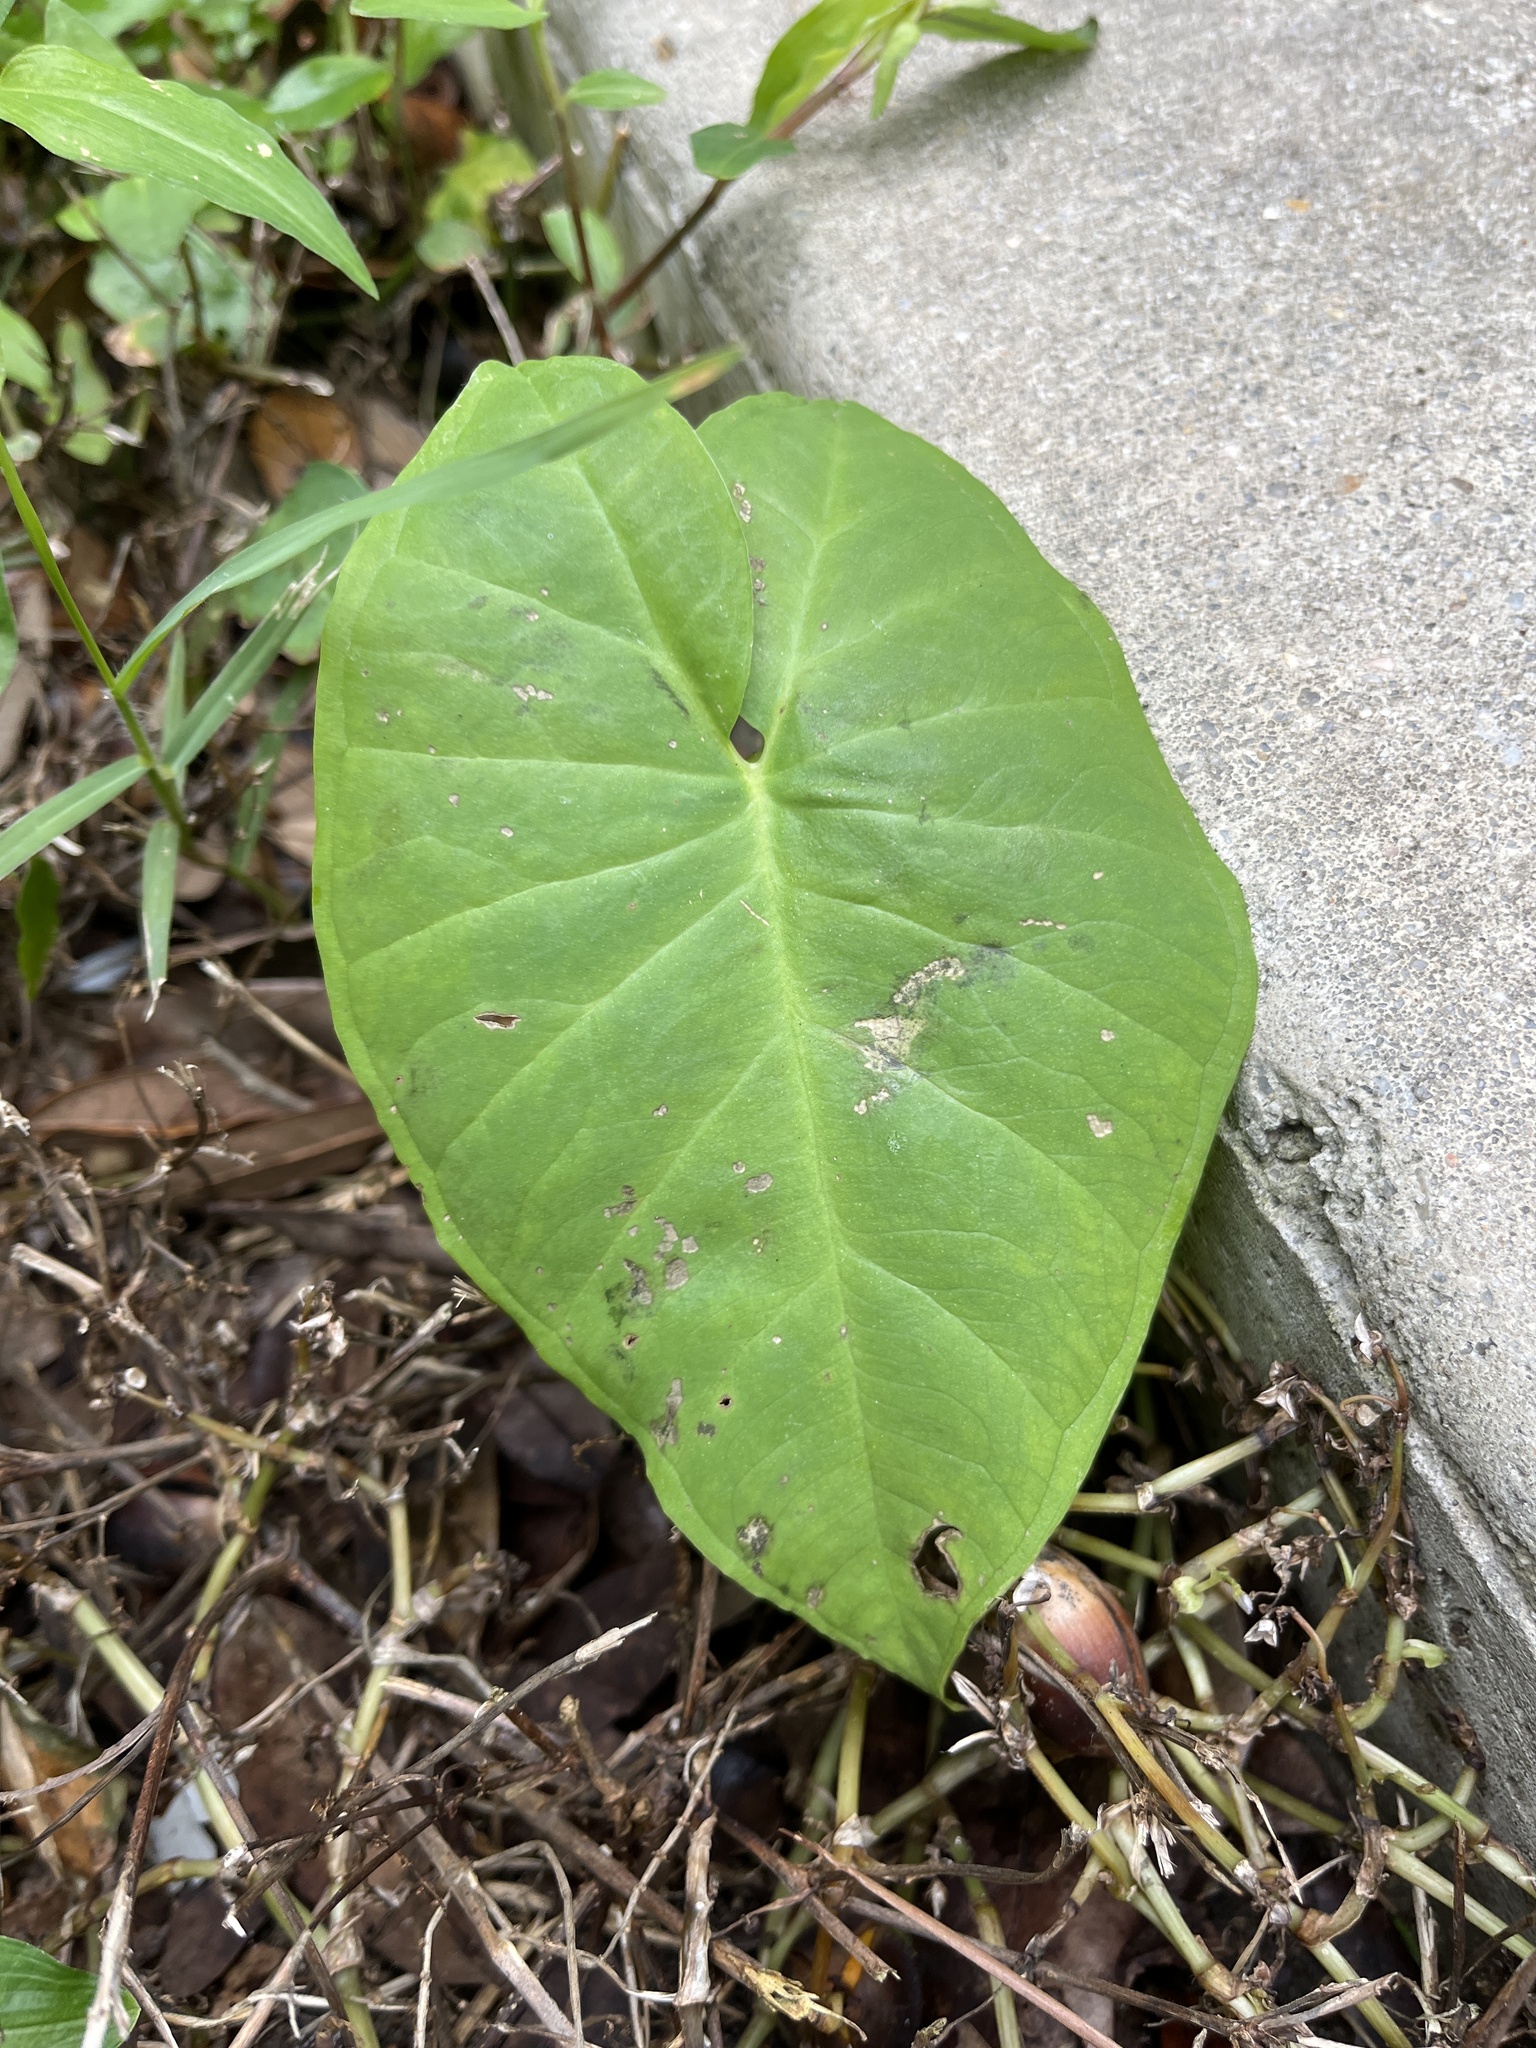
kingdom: Plantae
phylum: Tracheophyta
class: Liliopsida
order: Alismatales
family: Araceae
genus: Colocasia
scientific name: Colocasia esculenta
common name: Taro
